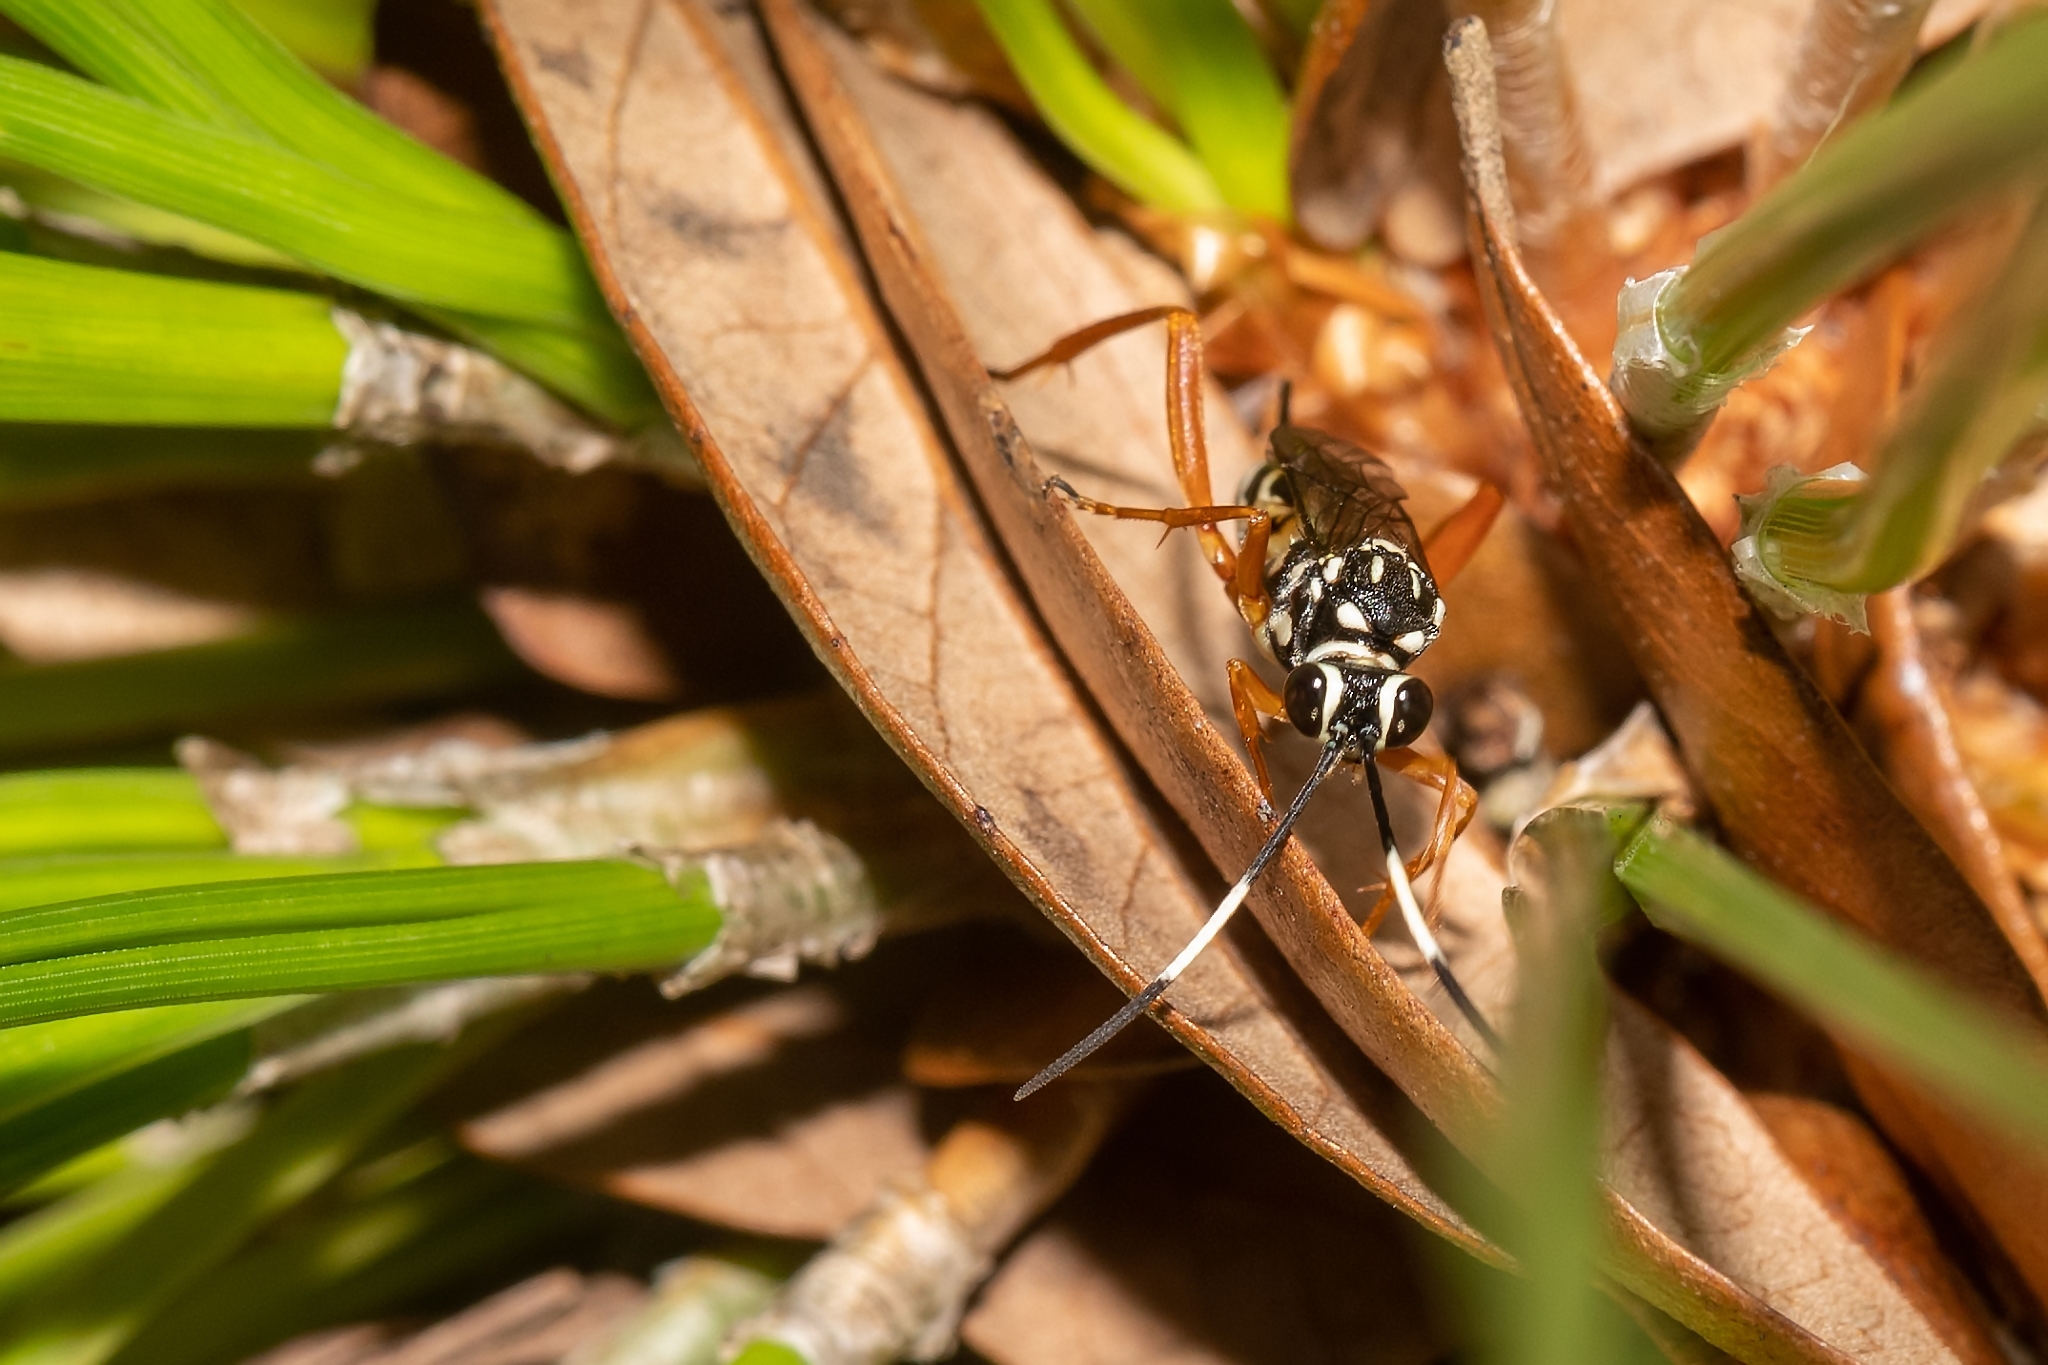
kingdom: Animalia
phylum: Arthropoda
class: Insecta
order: Hymenoptera
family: Ichneumonidae
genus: Baryceros
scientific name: Baryceros texanus
